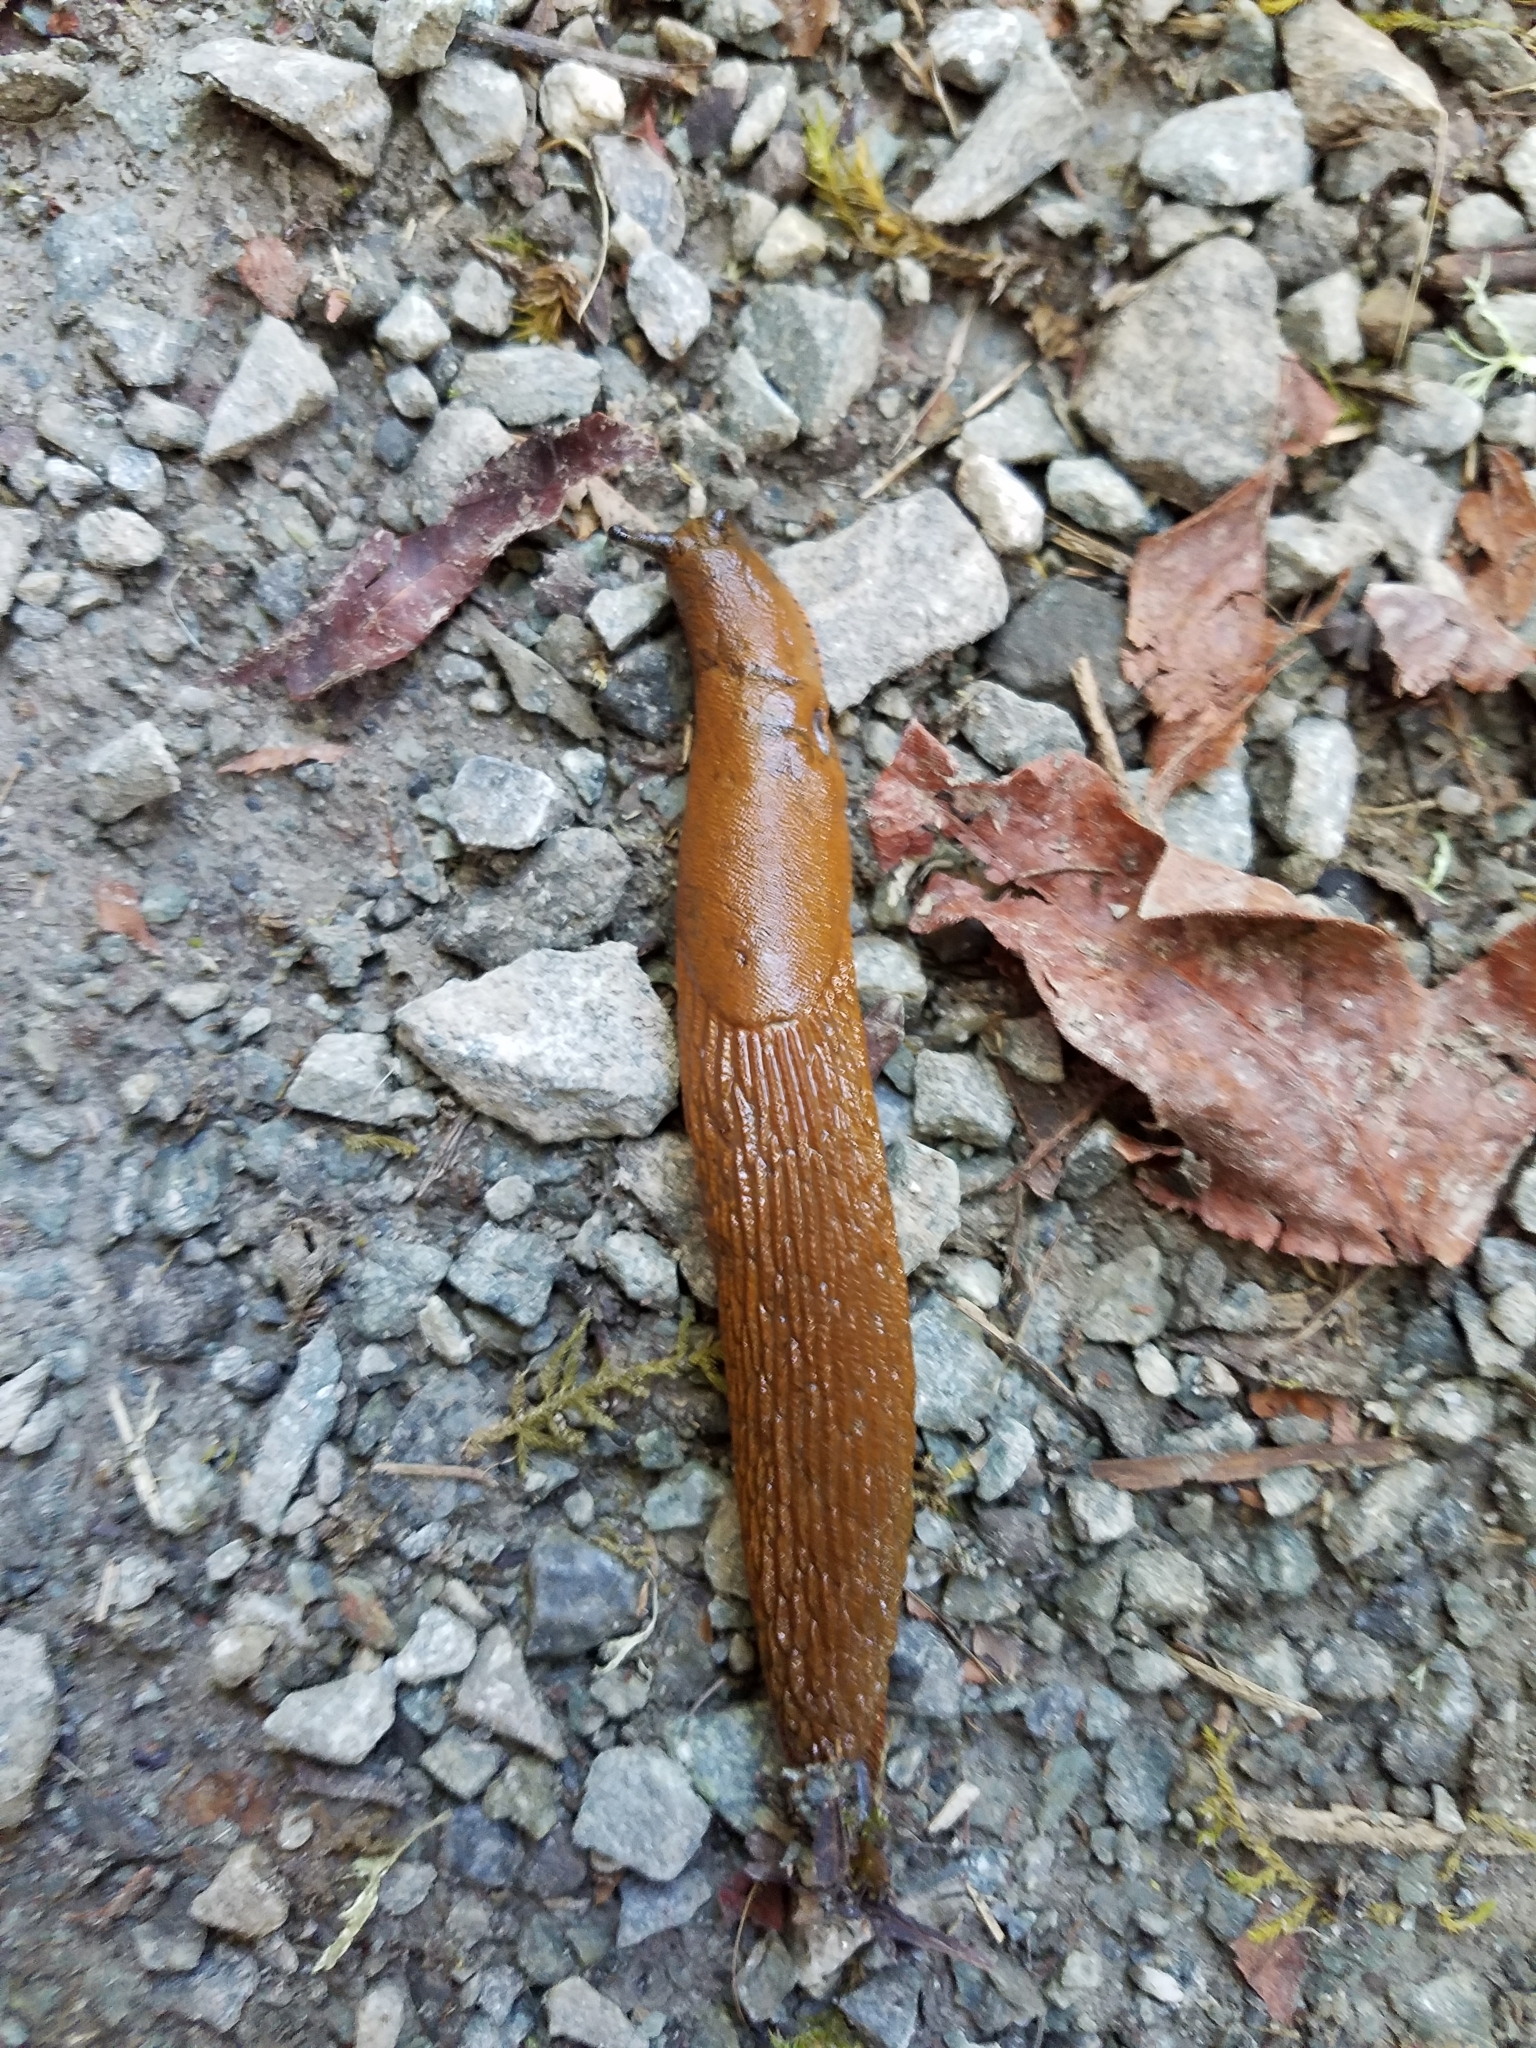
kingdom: Animalia
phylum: Mollusca
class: Gastropoda
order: Stylommatophora
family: Arionidae
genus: Arion
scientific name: Arion
